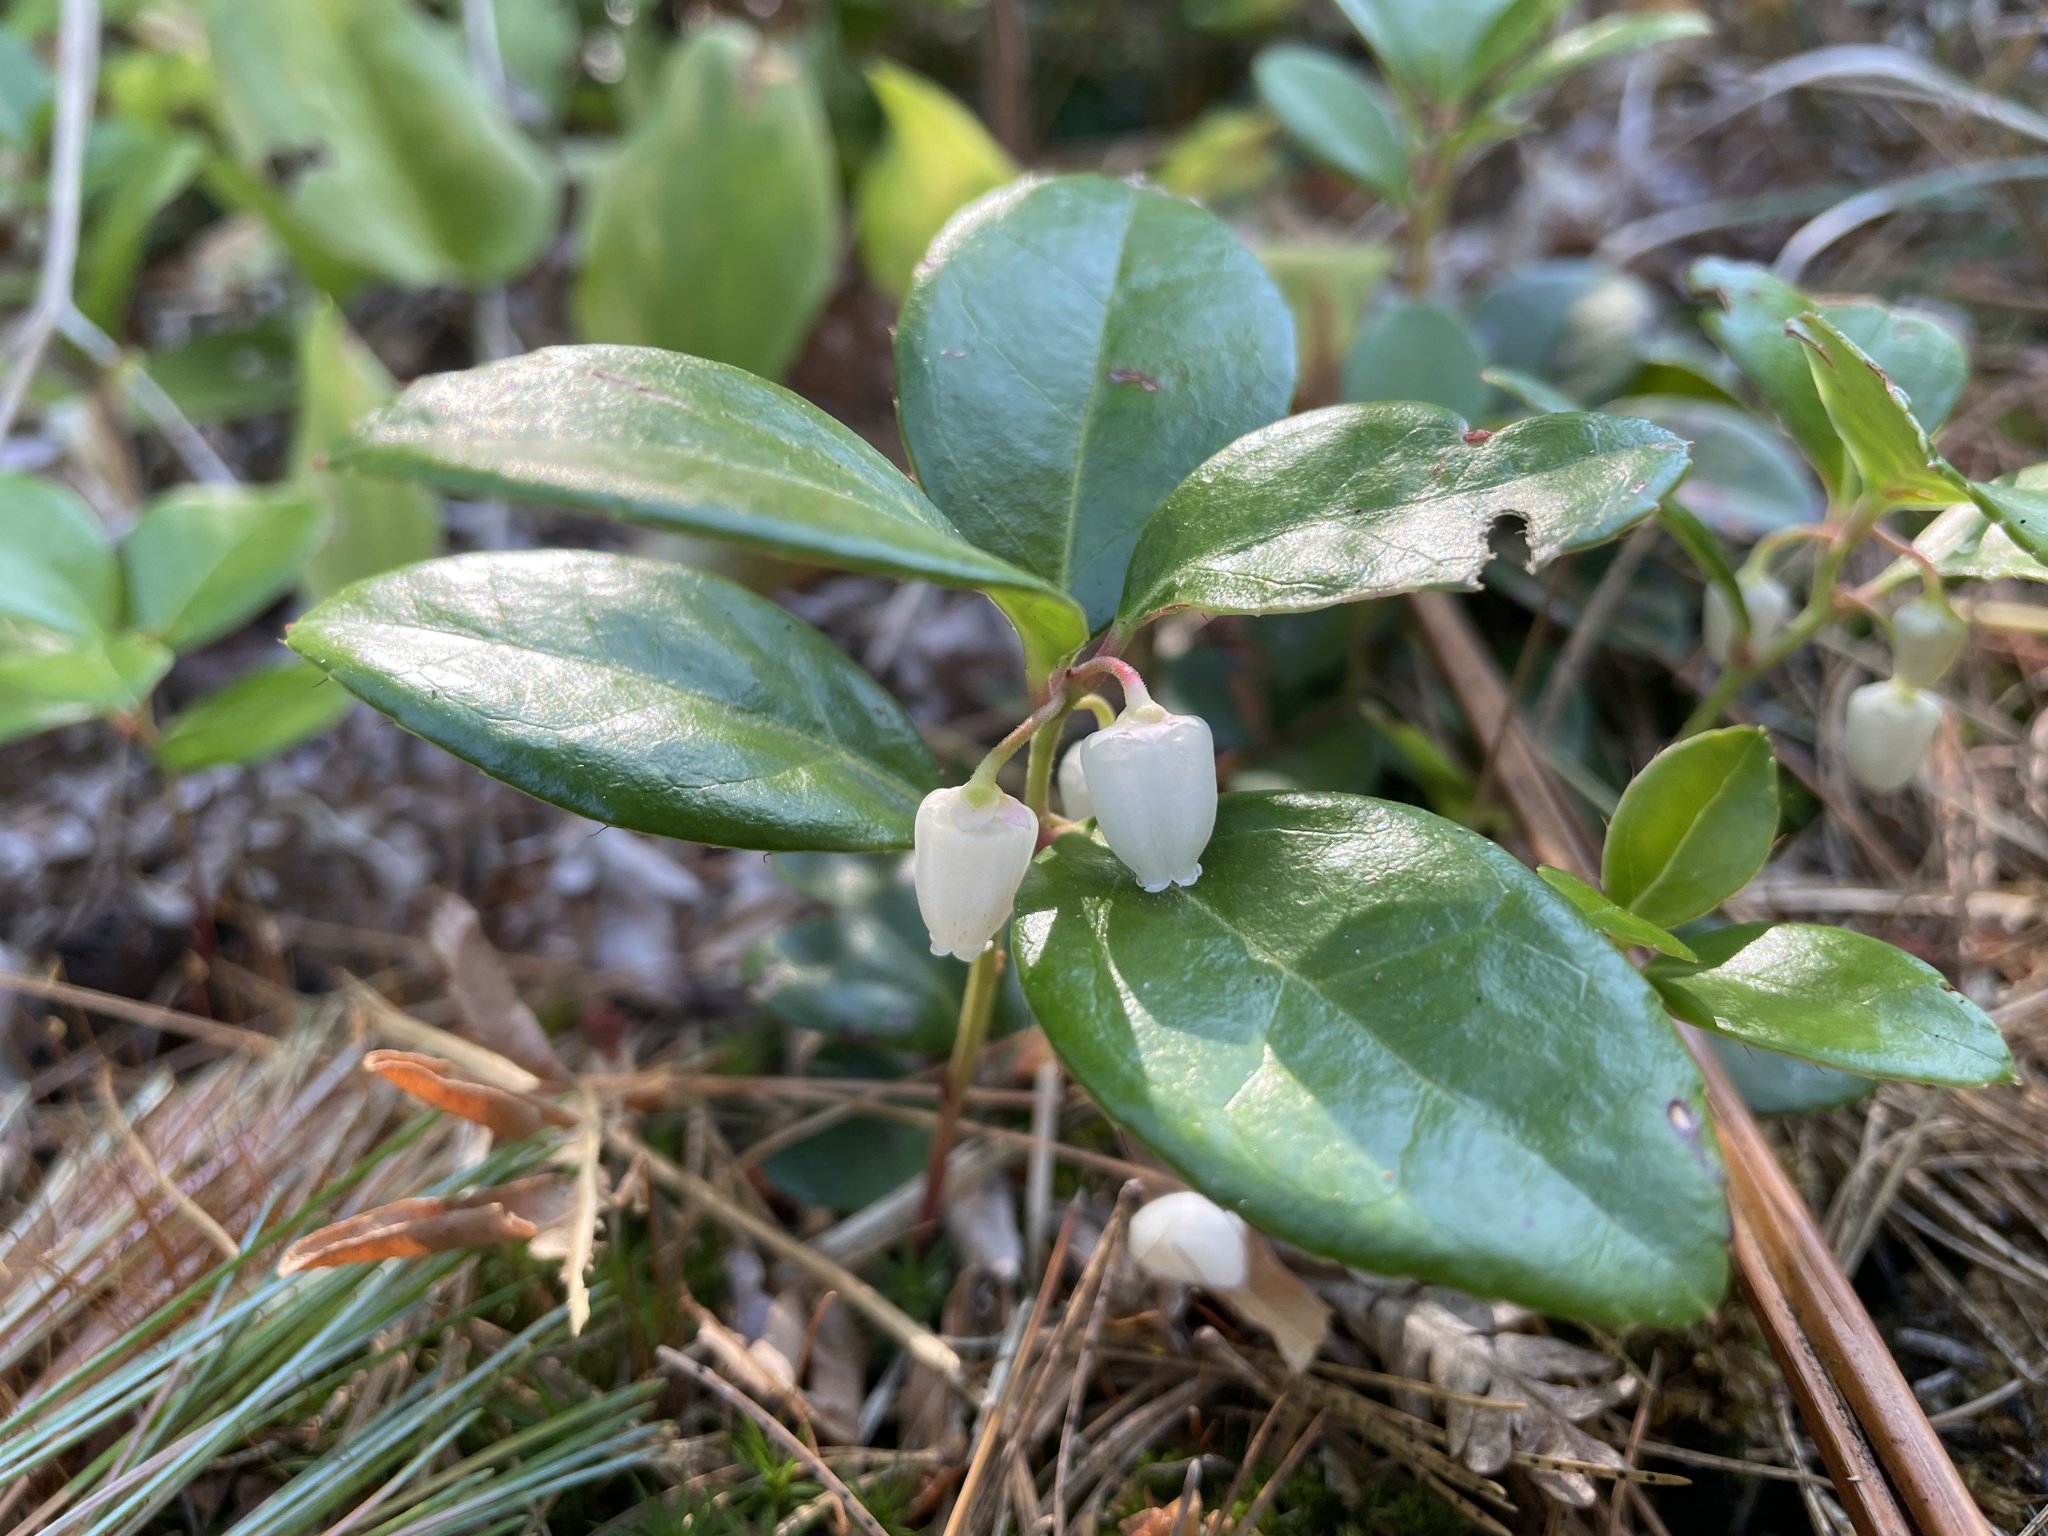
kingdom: Plantae
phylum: Tracheophyta
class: Magnoliopsida
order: Ericales
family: Ericaceae
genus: Gaultheria
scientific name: Gaultheria procumbens
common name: Checkerberry
